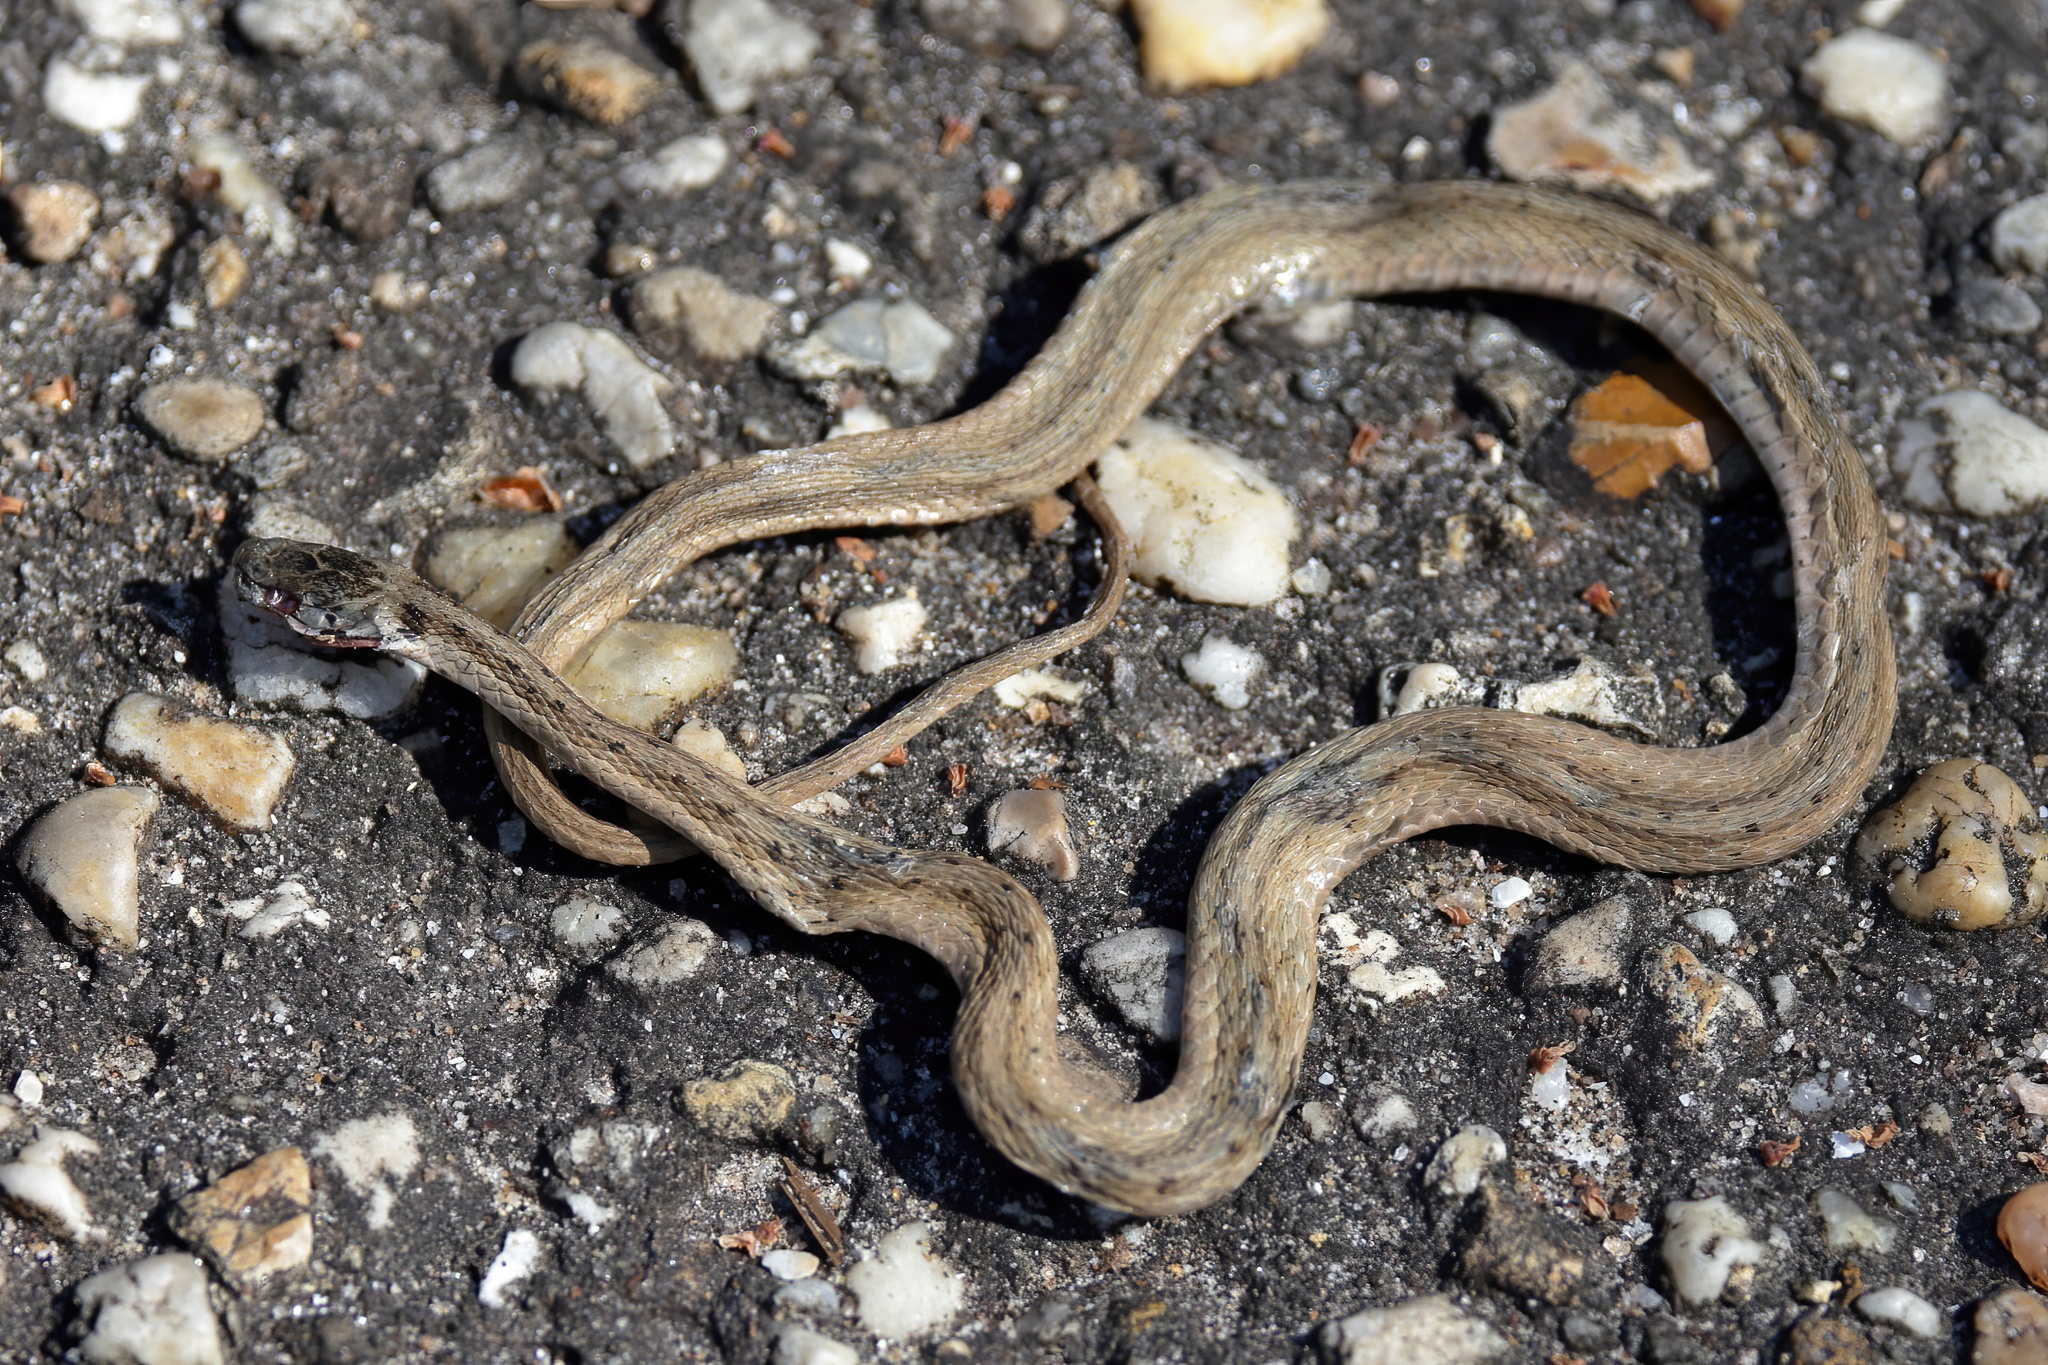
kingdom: Animalia
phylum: Chordata
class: Squamata
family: Colubridae
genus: Storeria
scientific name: Storeria dekayi
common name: (dekay’s) brown snake
